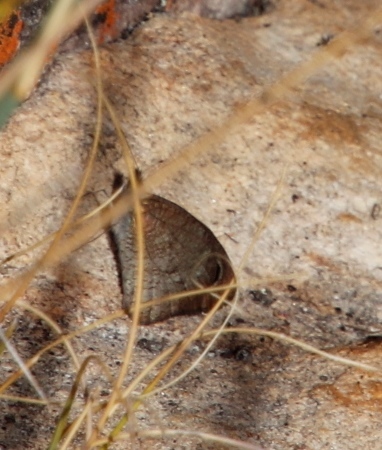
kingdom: Animalia
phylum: Arthropoda
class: Insecta
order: Lepidoptera
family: Nymphalidae
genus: Stygionympha
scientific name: Stygionympha vigilans
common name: Western hillside brown
